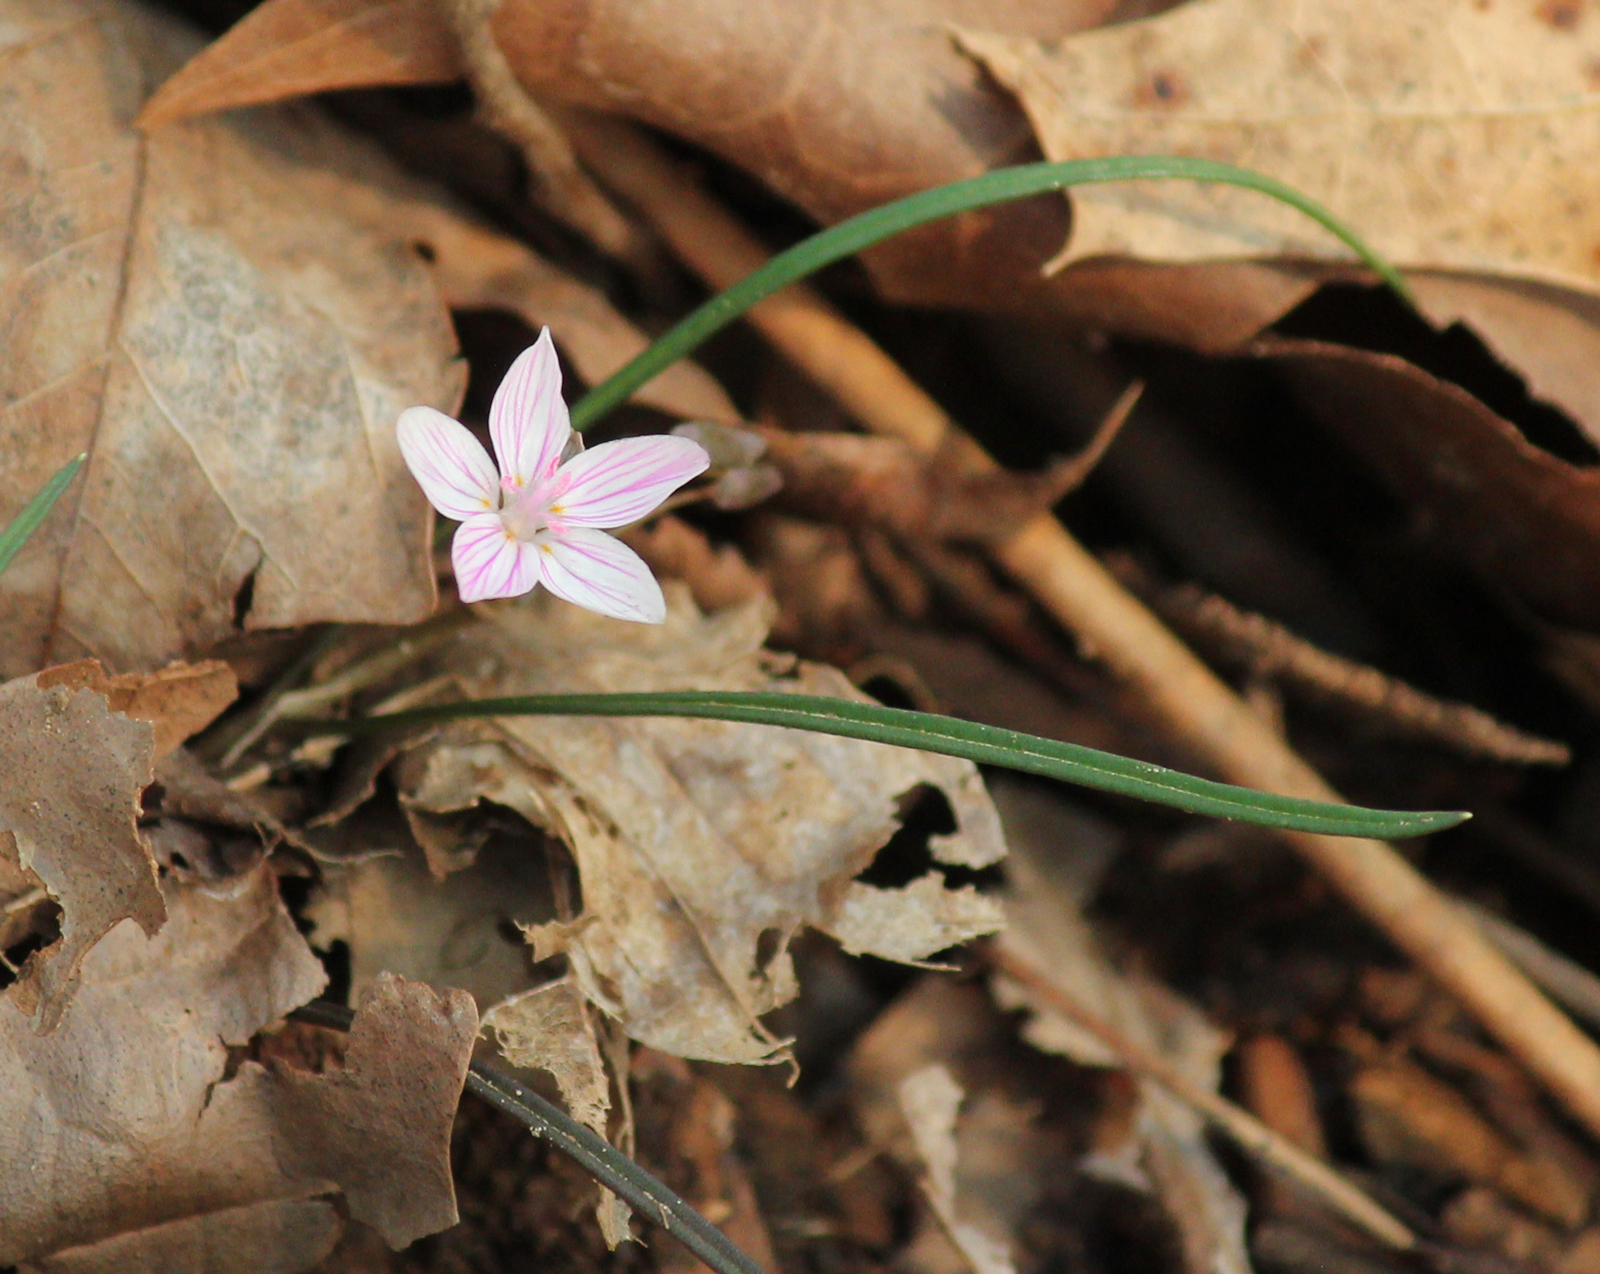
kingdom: Plantae
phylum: Tracheophyta
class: Magnoliopsida
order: Caryophyllales
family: Montiaceae
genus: Claytonia
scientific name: Claytonia virginica
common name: Virginia springbeauty
